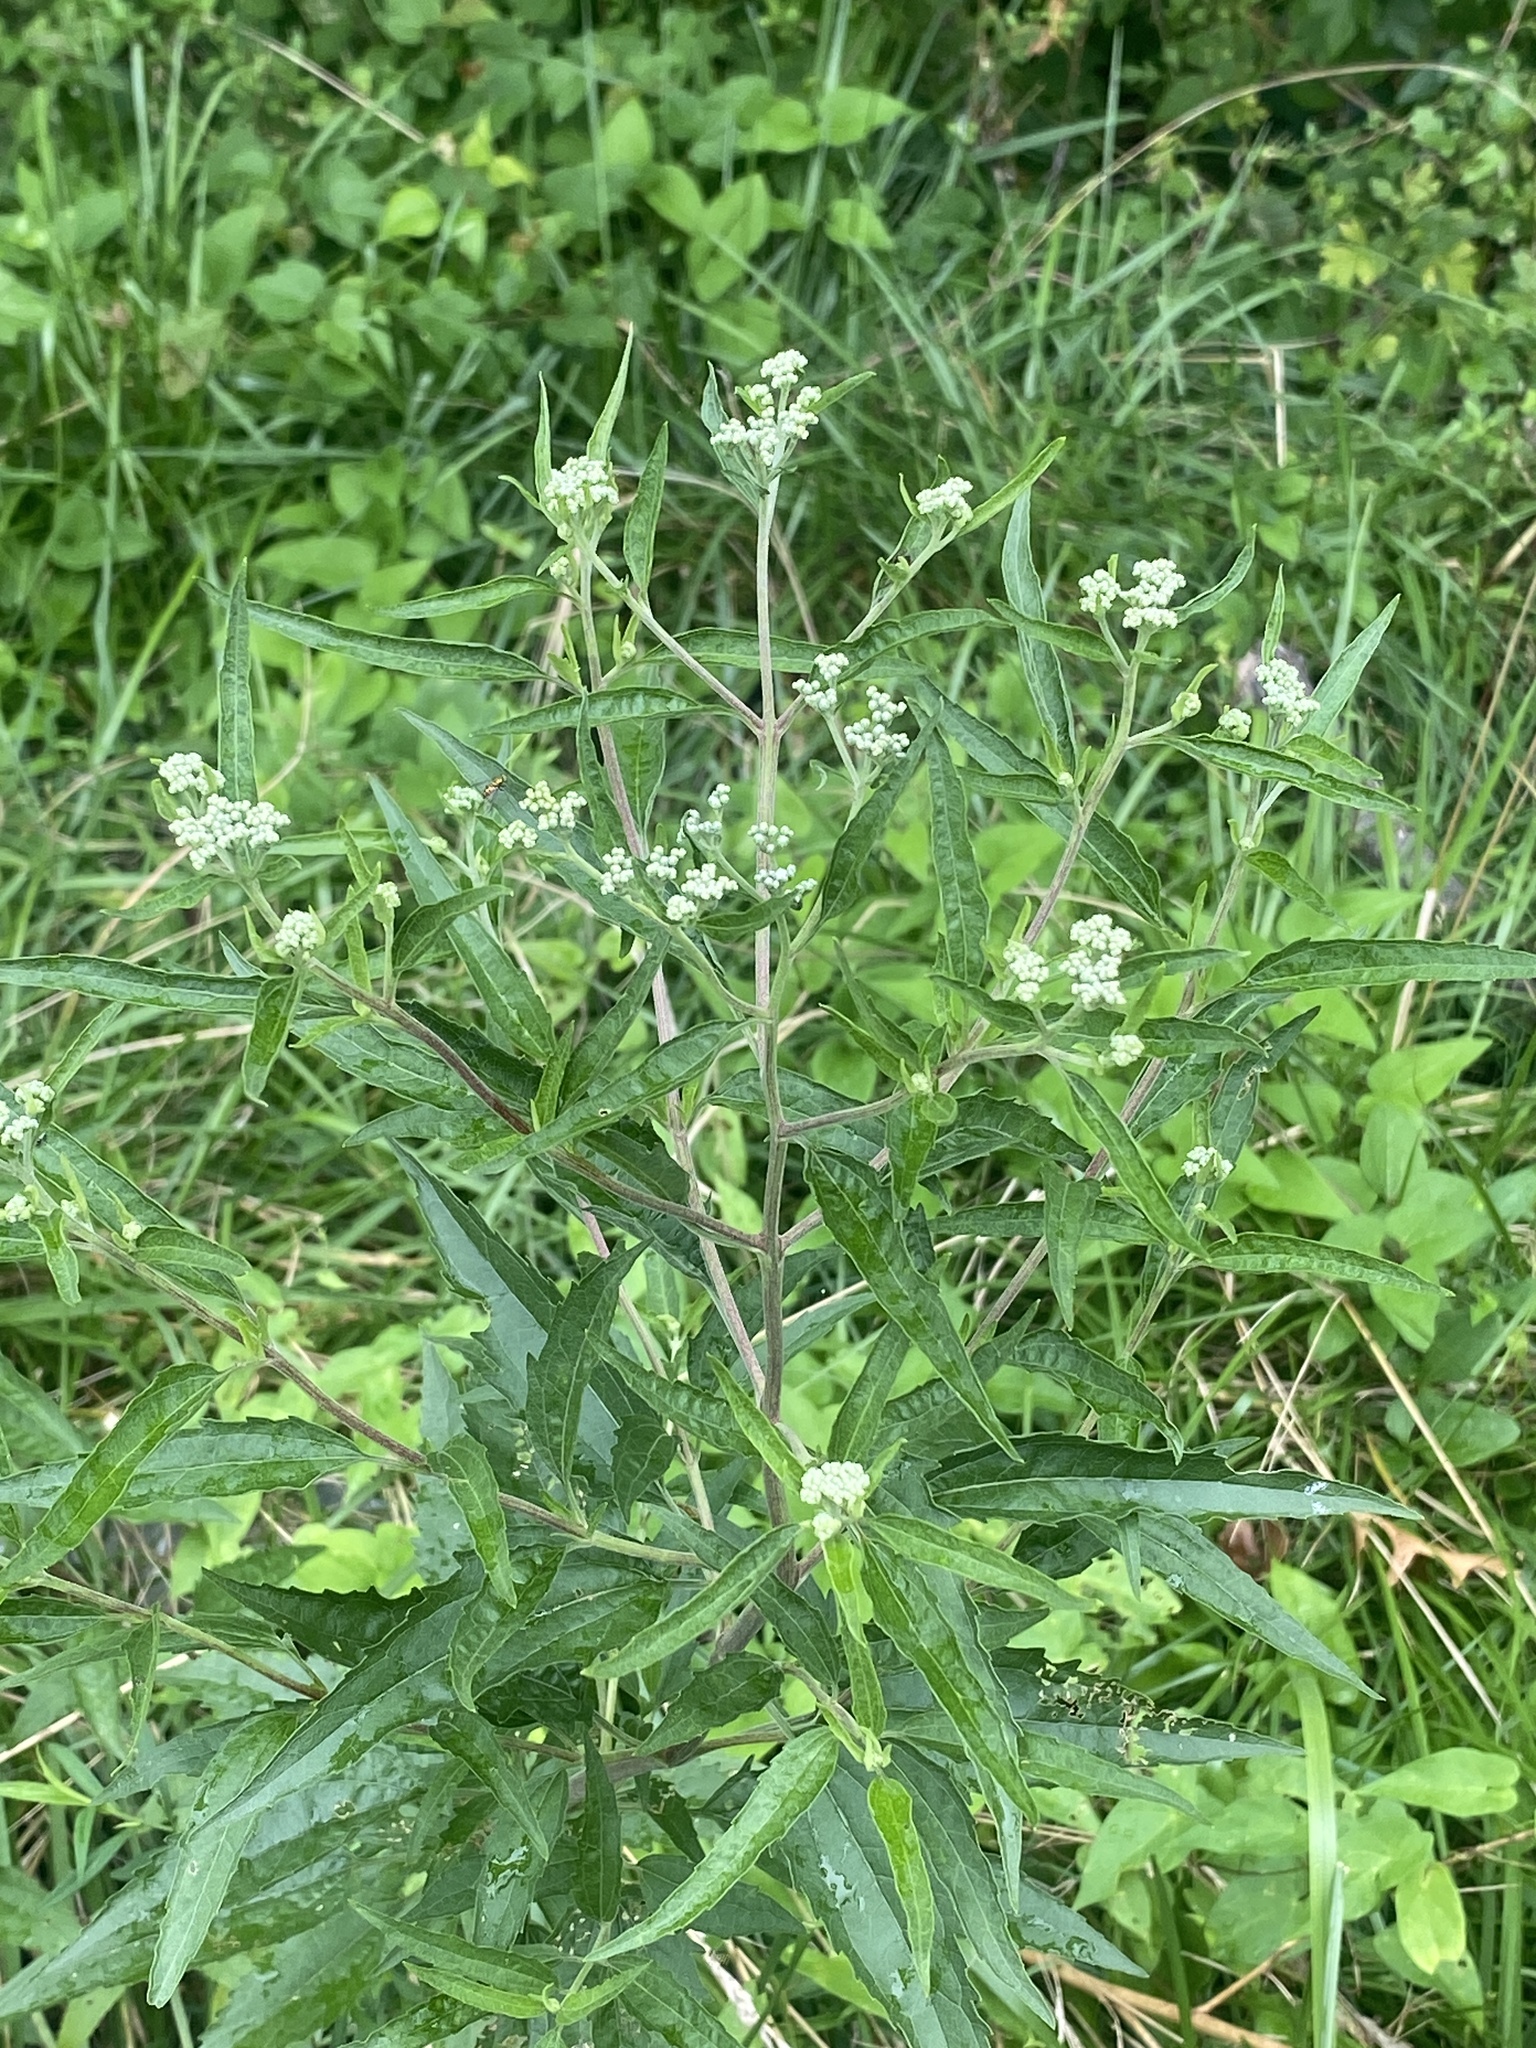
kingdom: Plantae
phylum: Tracheophyta
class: Magnoliopsida
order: Asterales
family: Asteraceae
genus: Eupatorium
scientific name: Eupatorium serotinum
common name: Late boneset
